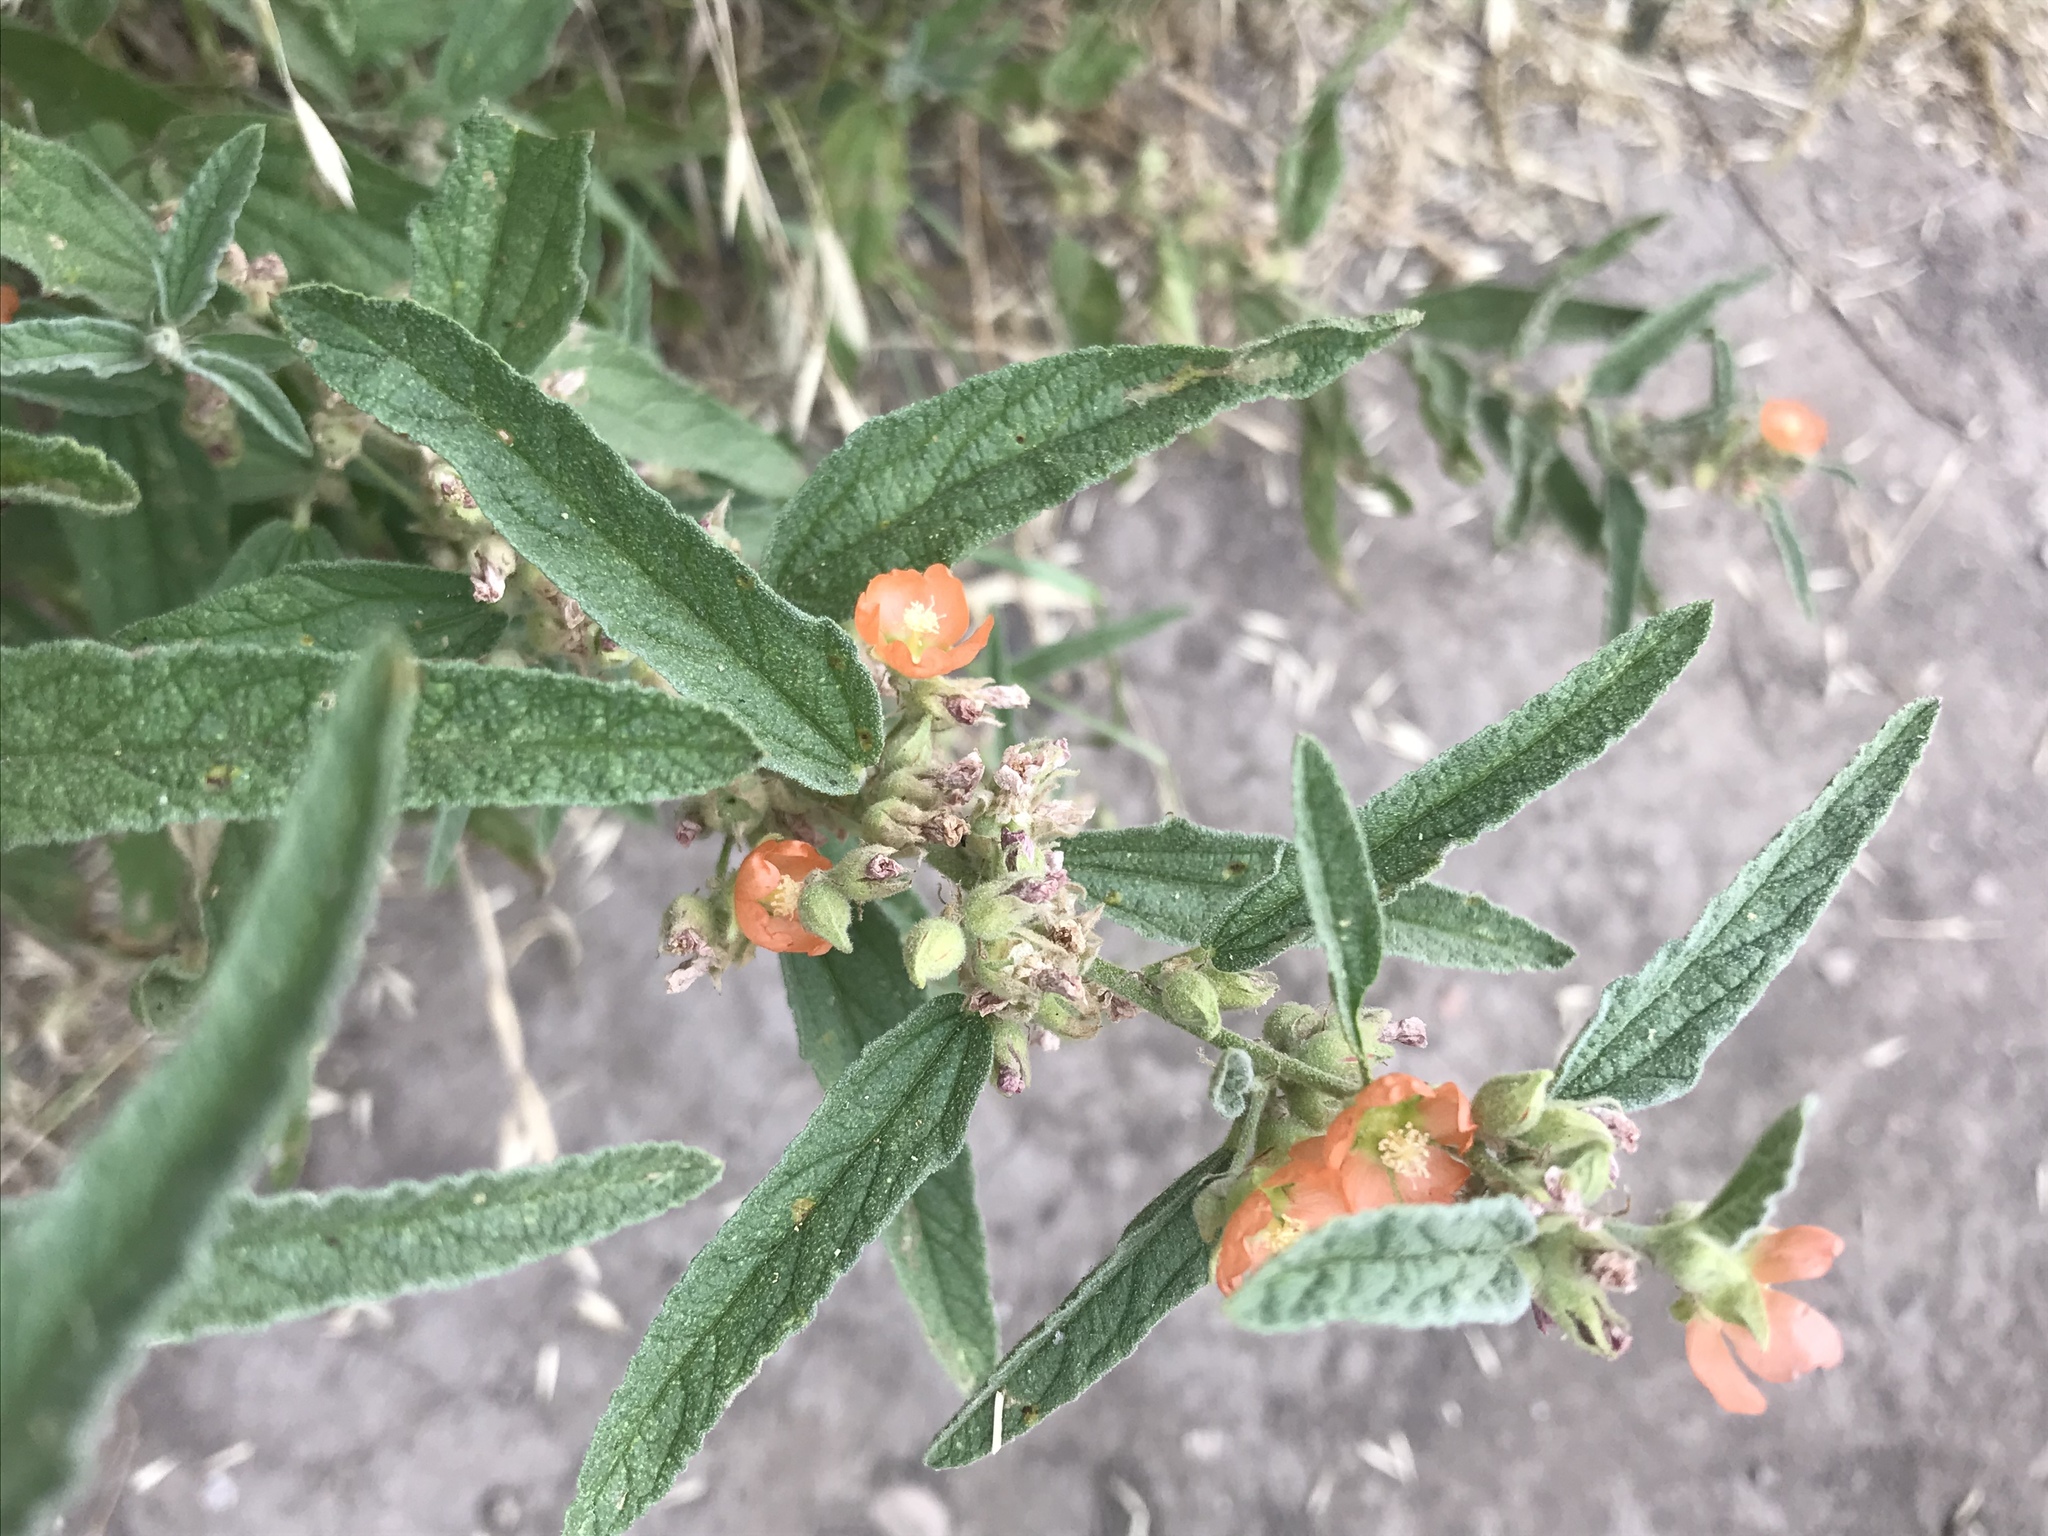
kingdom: Plantae
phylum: Tracheophyta
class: Magnoliopsida
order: Malvales
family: Malvaceae
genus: Sphaeralcea
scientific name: Sphaeralcea angustifolia
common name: Copper globe-mallow
